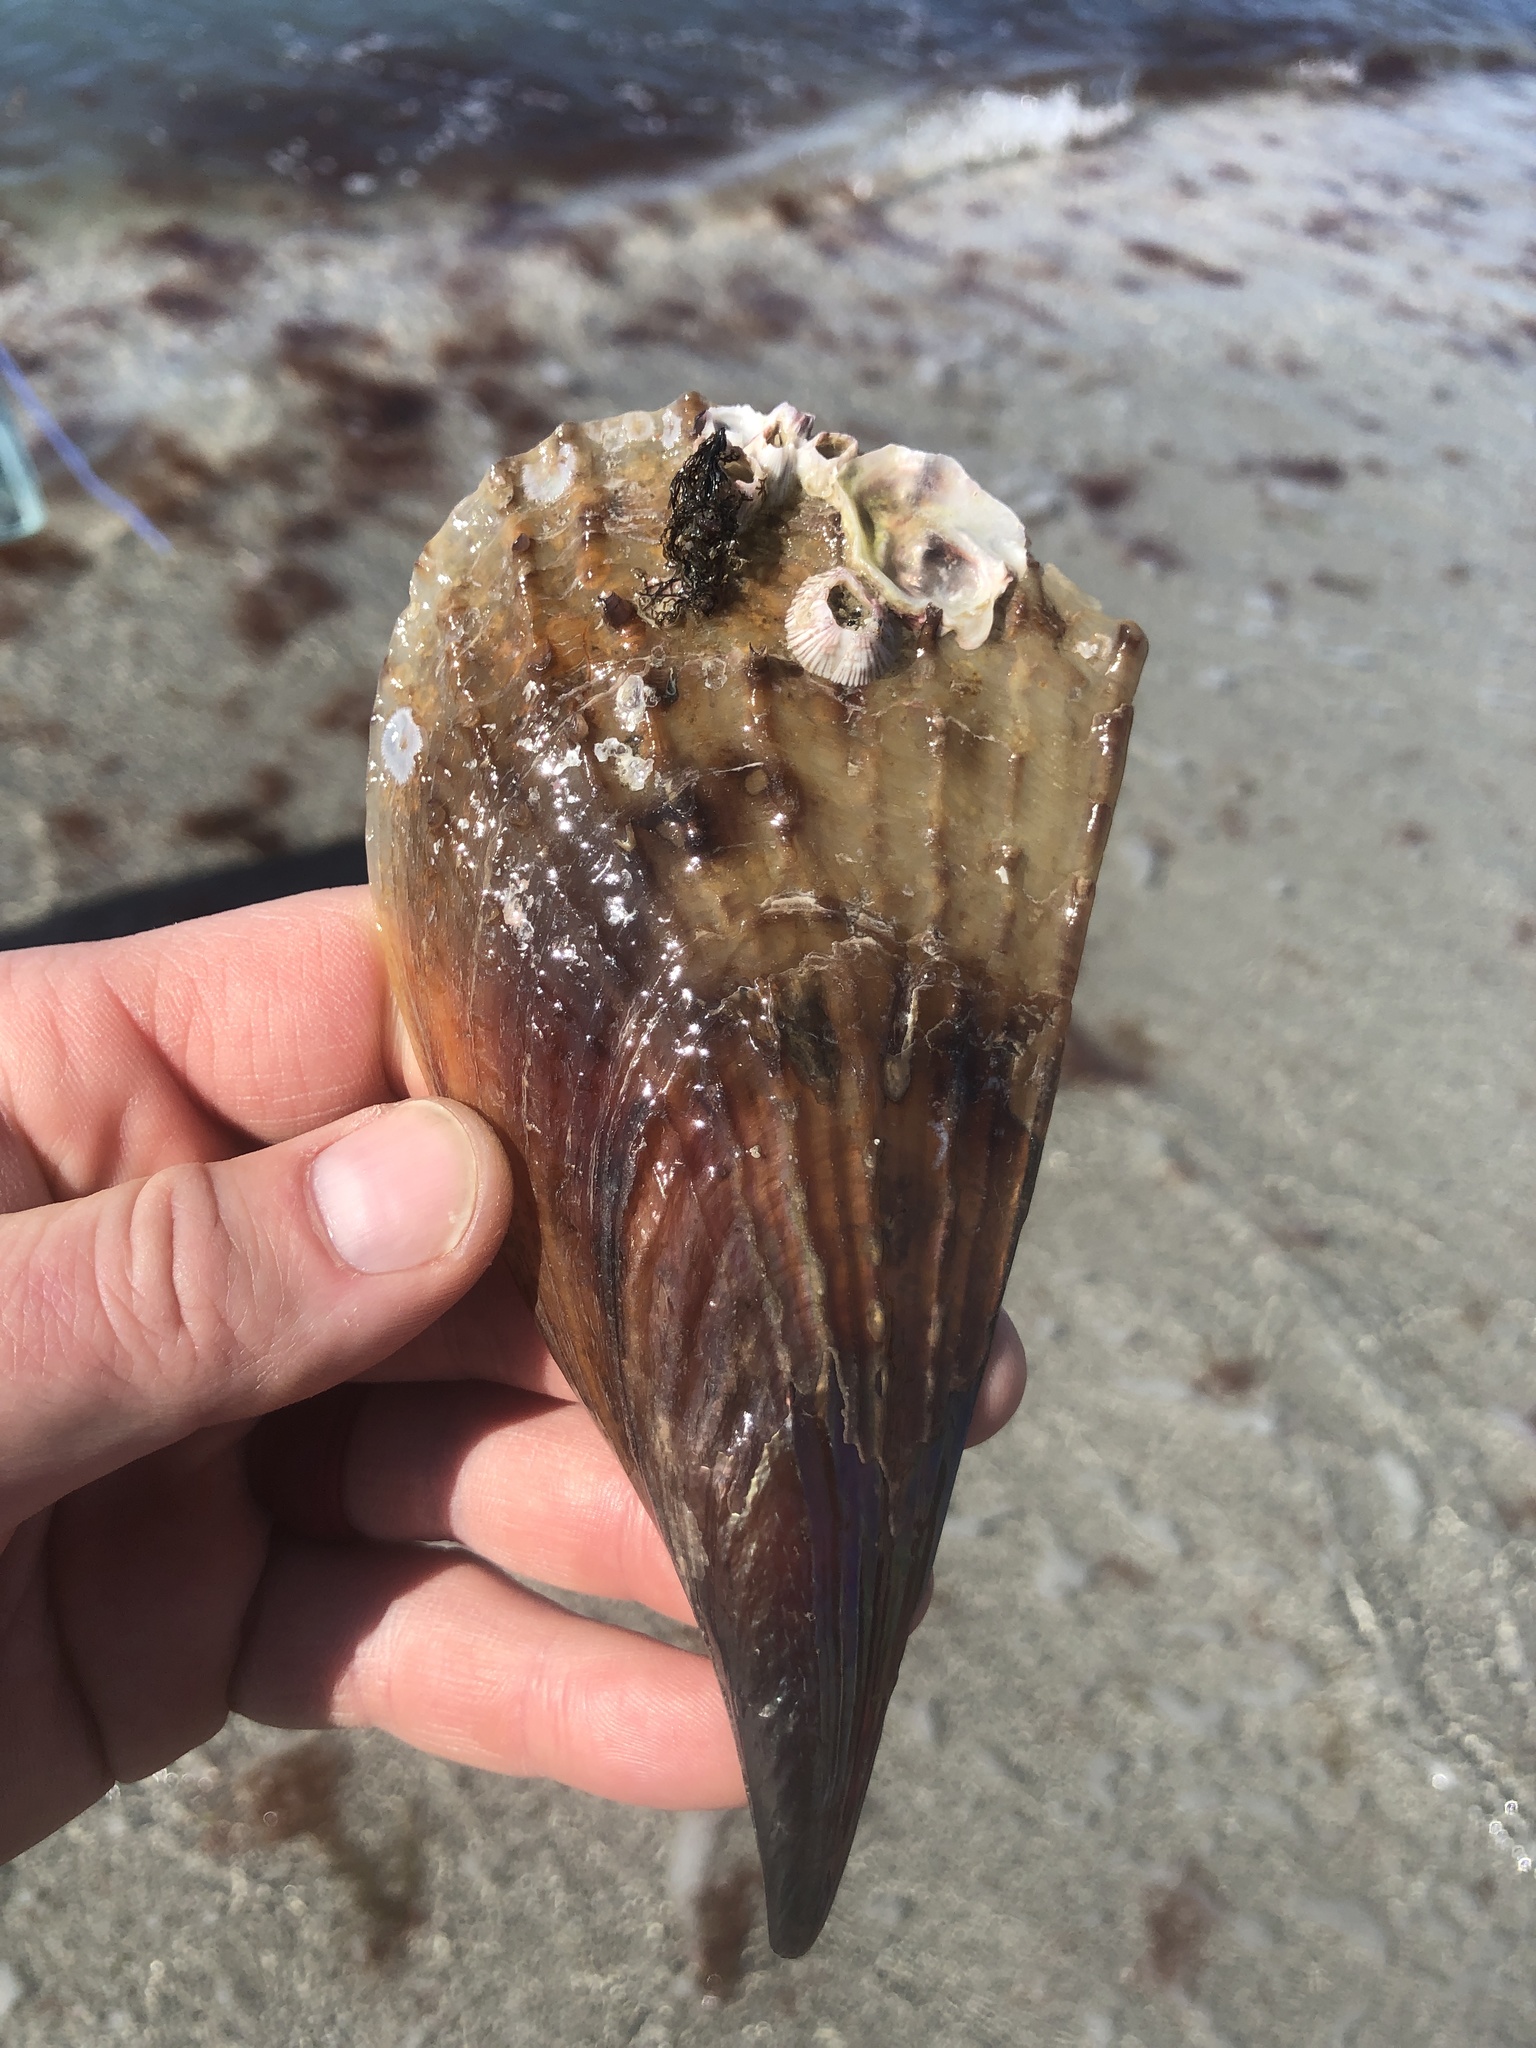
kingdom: Animalia
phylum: Mollusca
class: Bivalvia
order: Ostreida
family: Pinnidae
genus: Atrina
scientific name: Atrina rigida
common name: Stiff penshell
